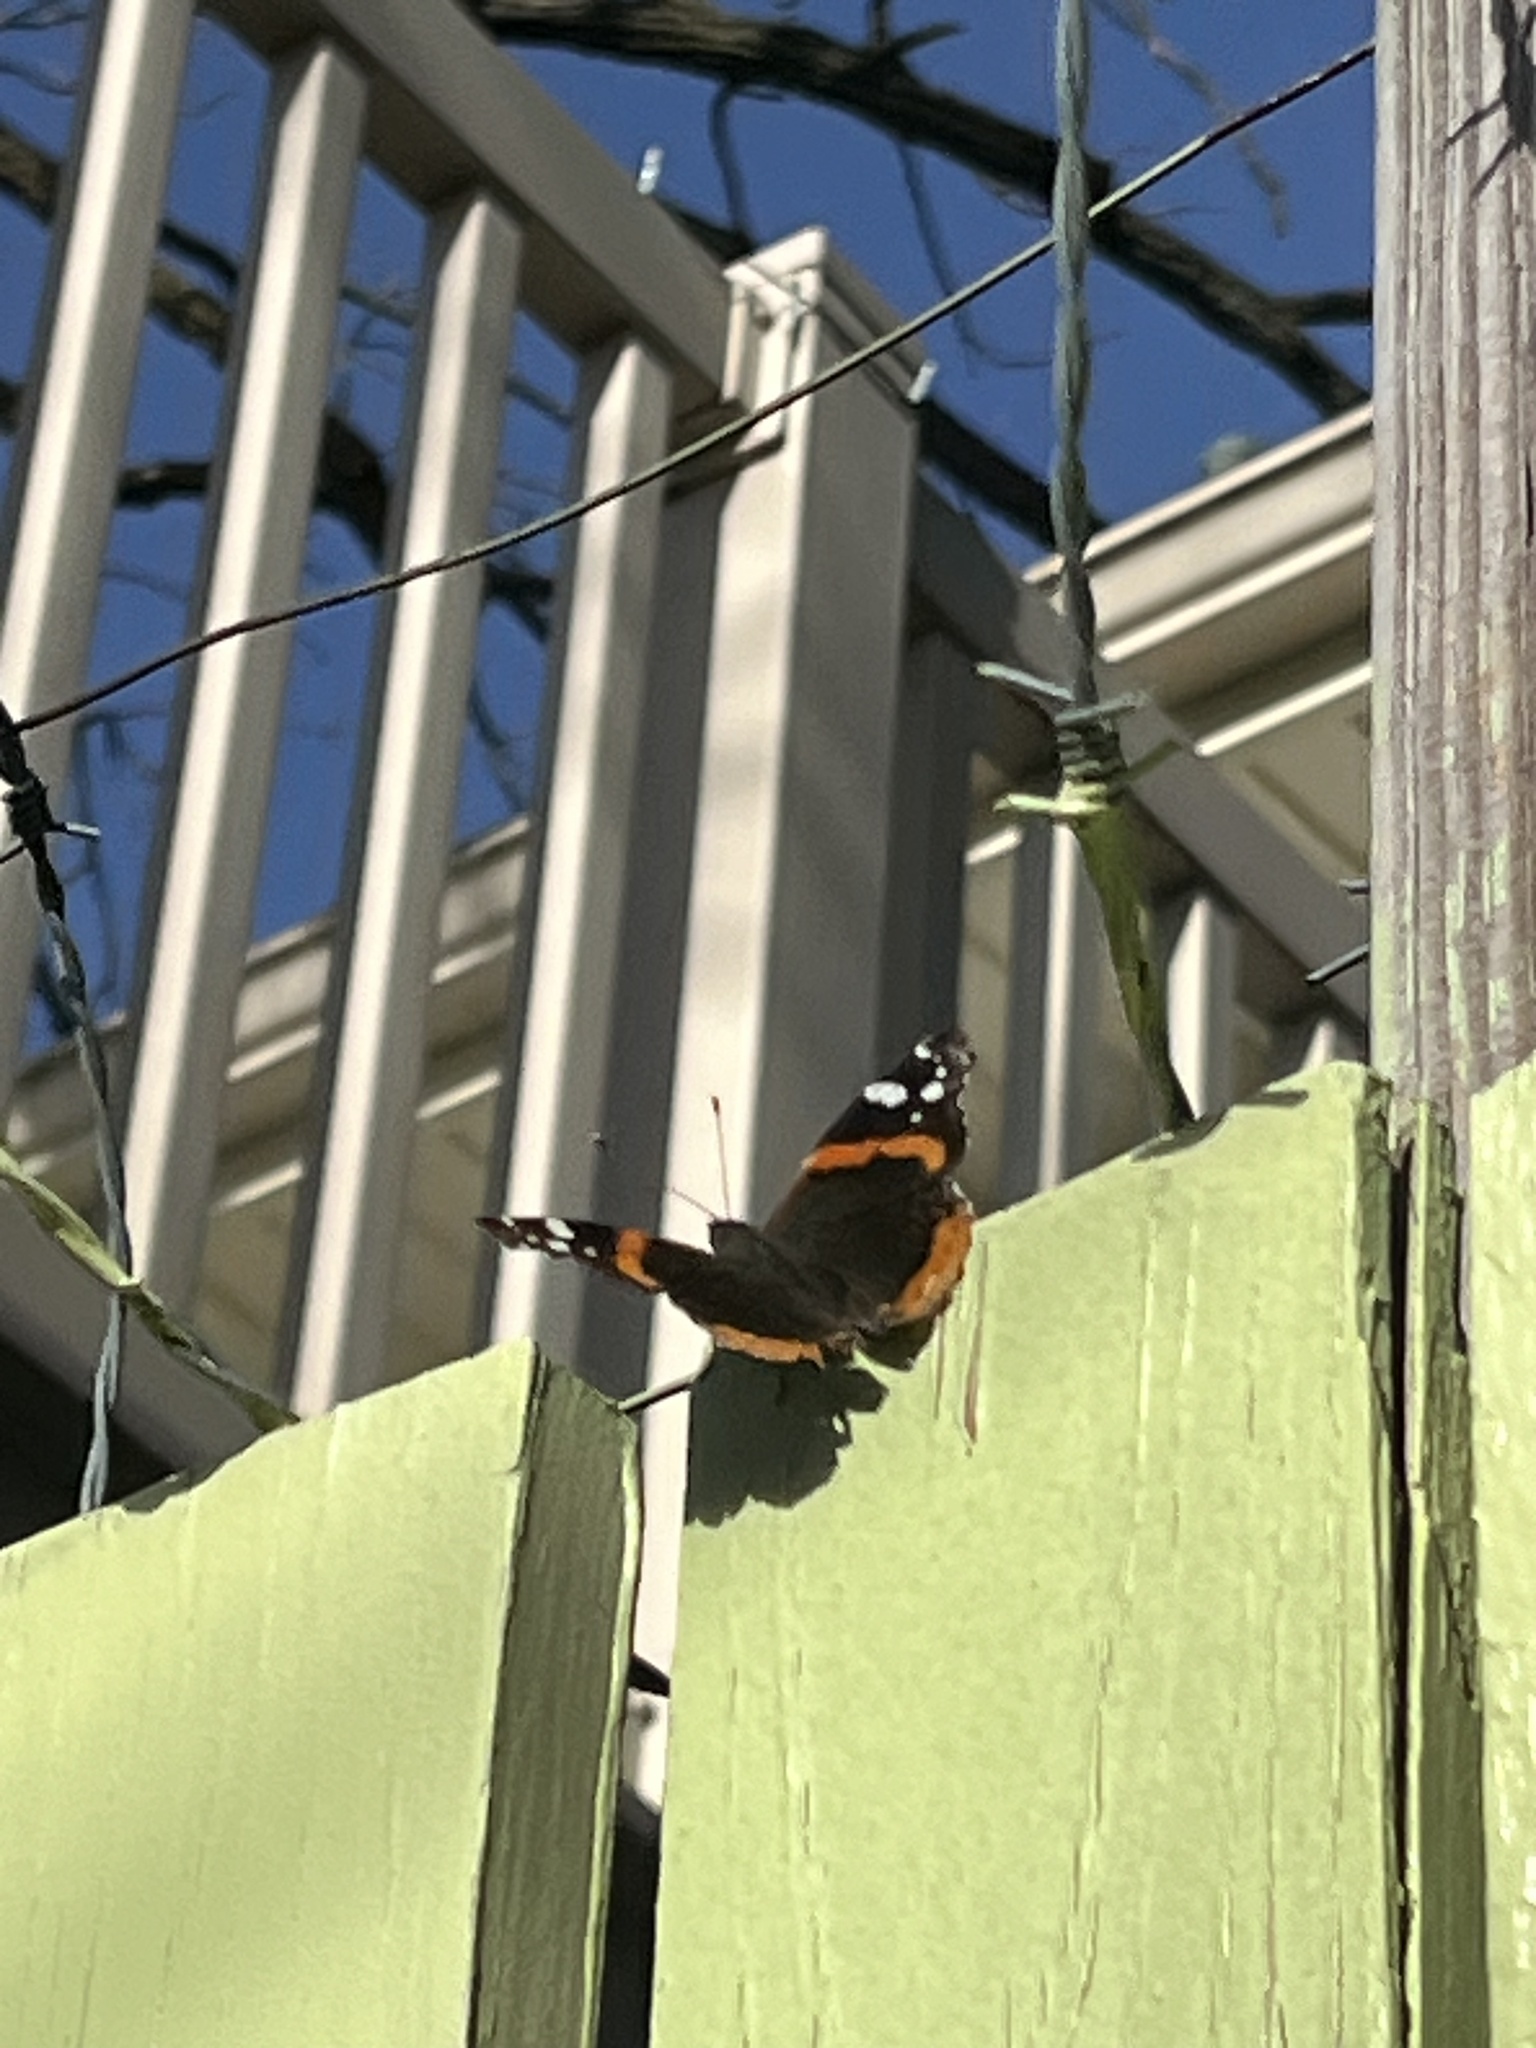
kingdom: Animalia
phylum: Arthropoda
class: Insecta
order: Lepidoptera
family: Nymphalidae
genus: Vanessa
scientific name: Vanessa atalanta
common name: Red admiral
